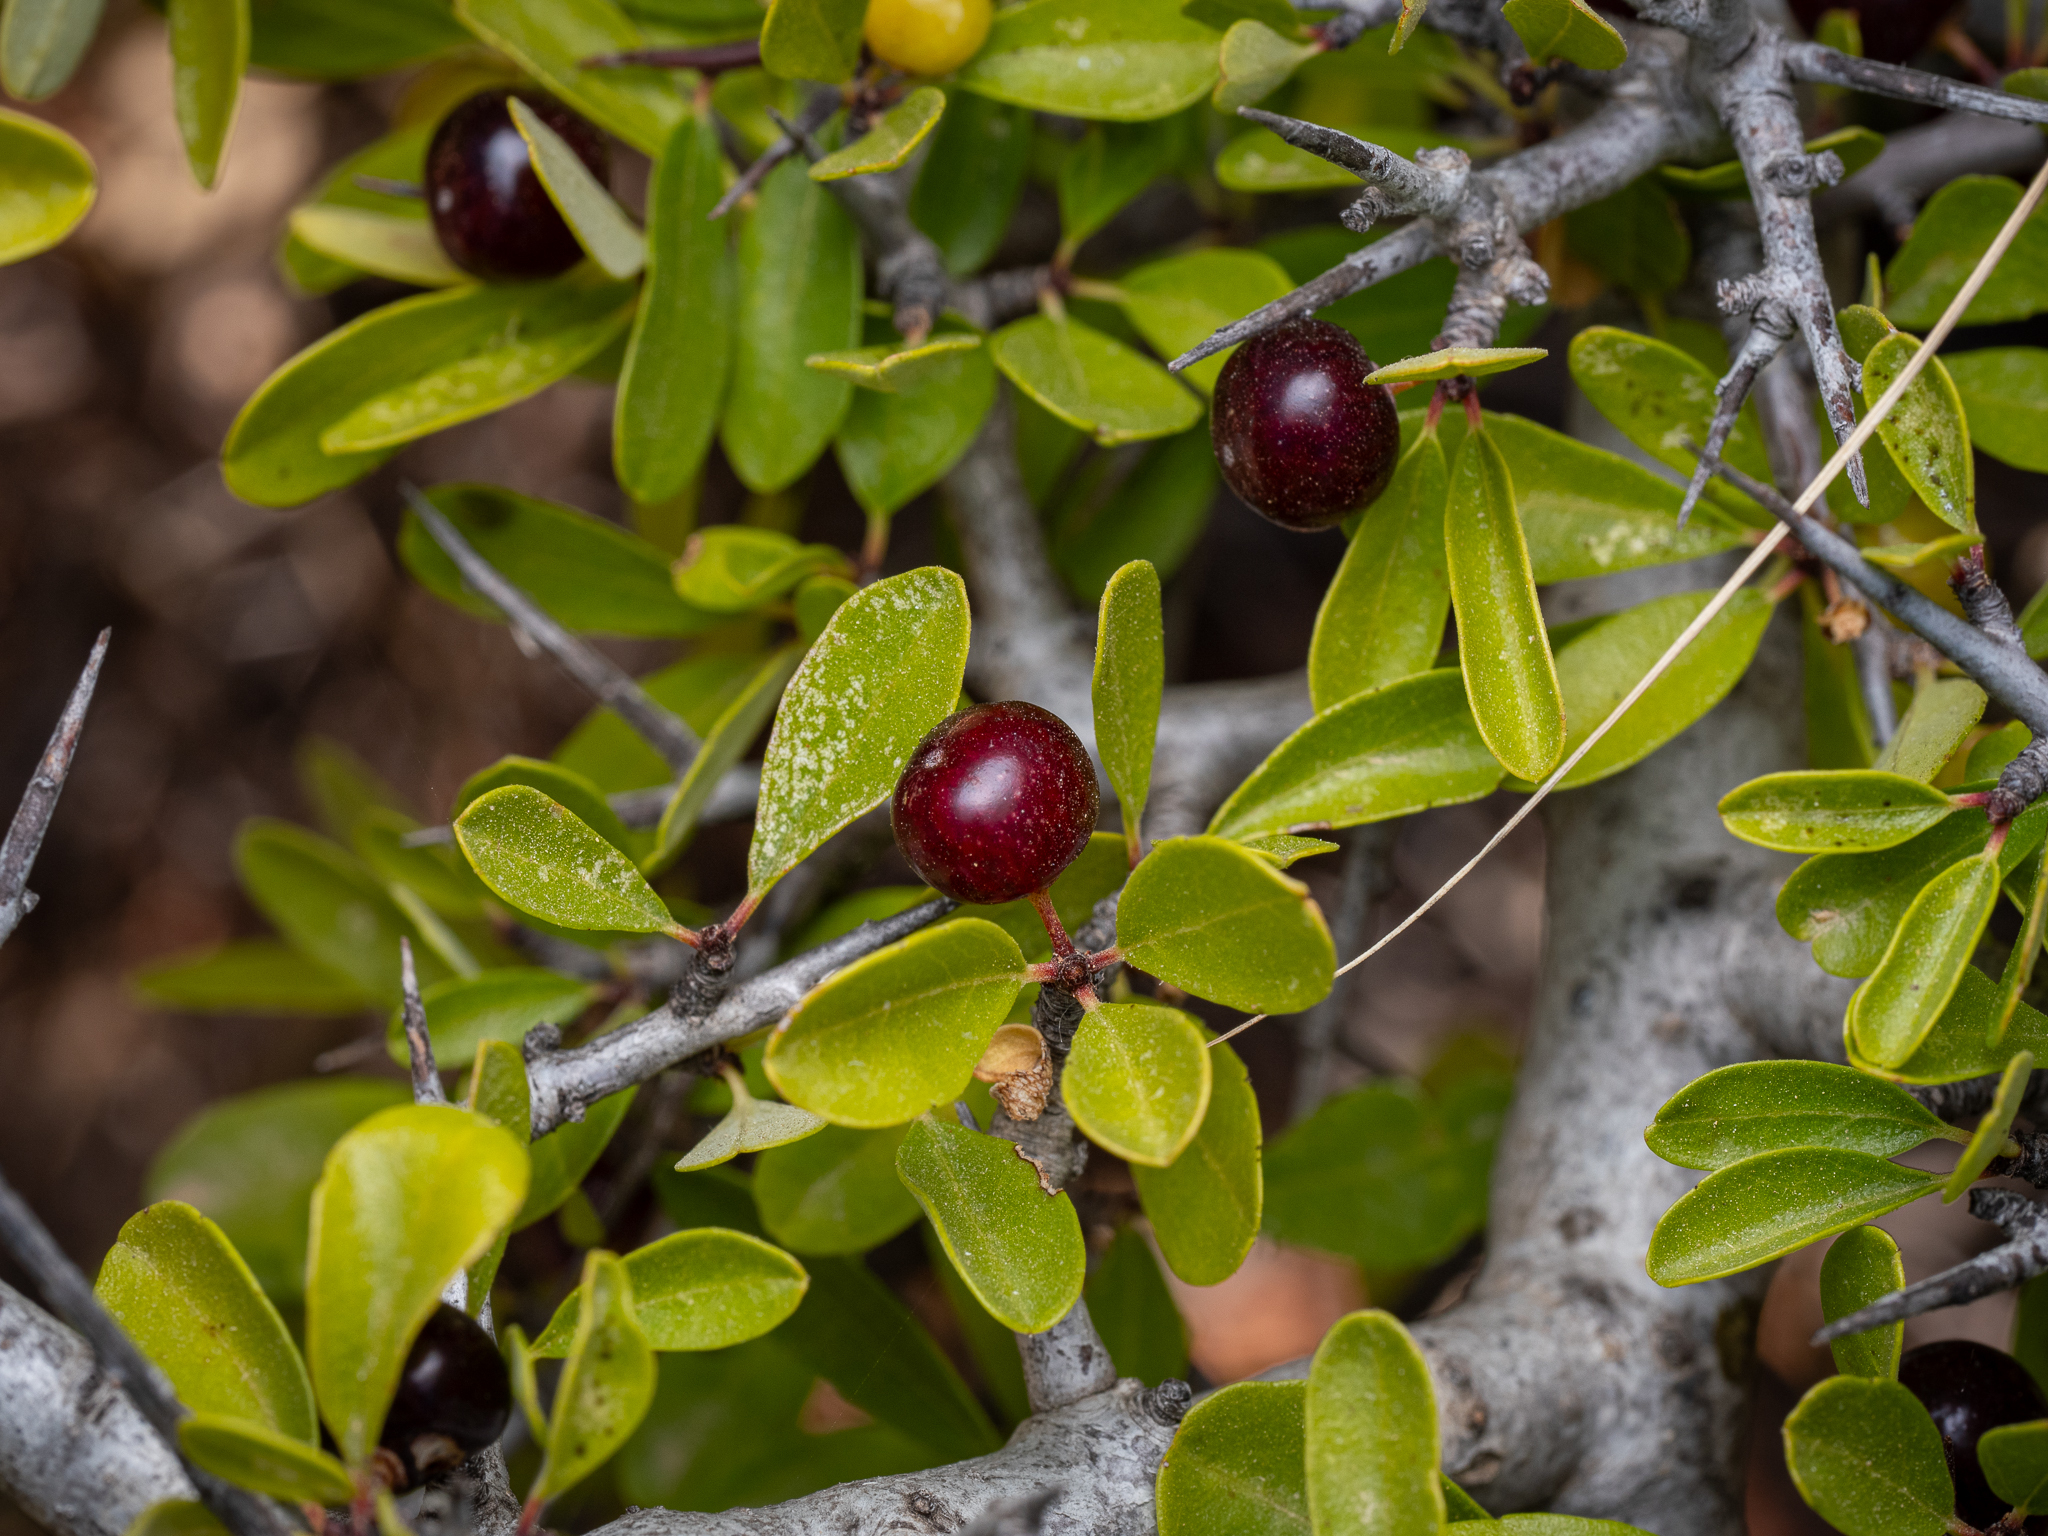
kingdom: Plantae
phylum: Tracheophyta
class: Magnoliopsida
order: Rosales
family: Rhamnaceae
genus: Rhamnus
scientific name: Rhamnus oleoides
